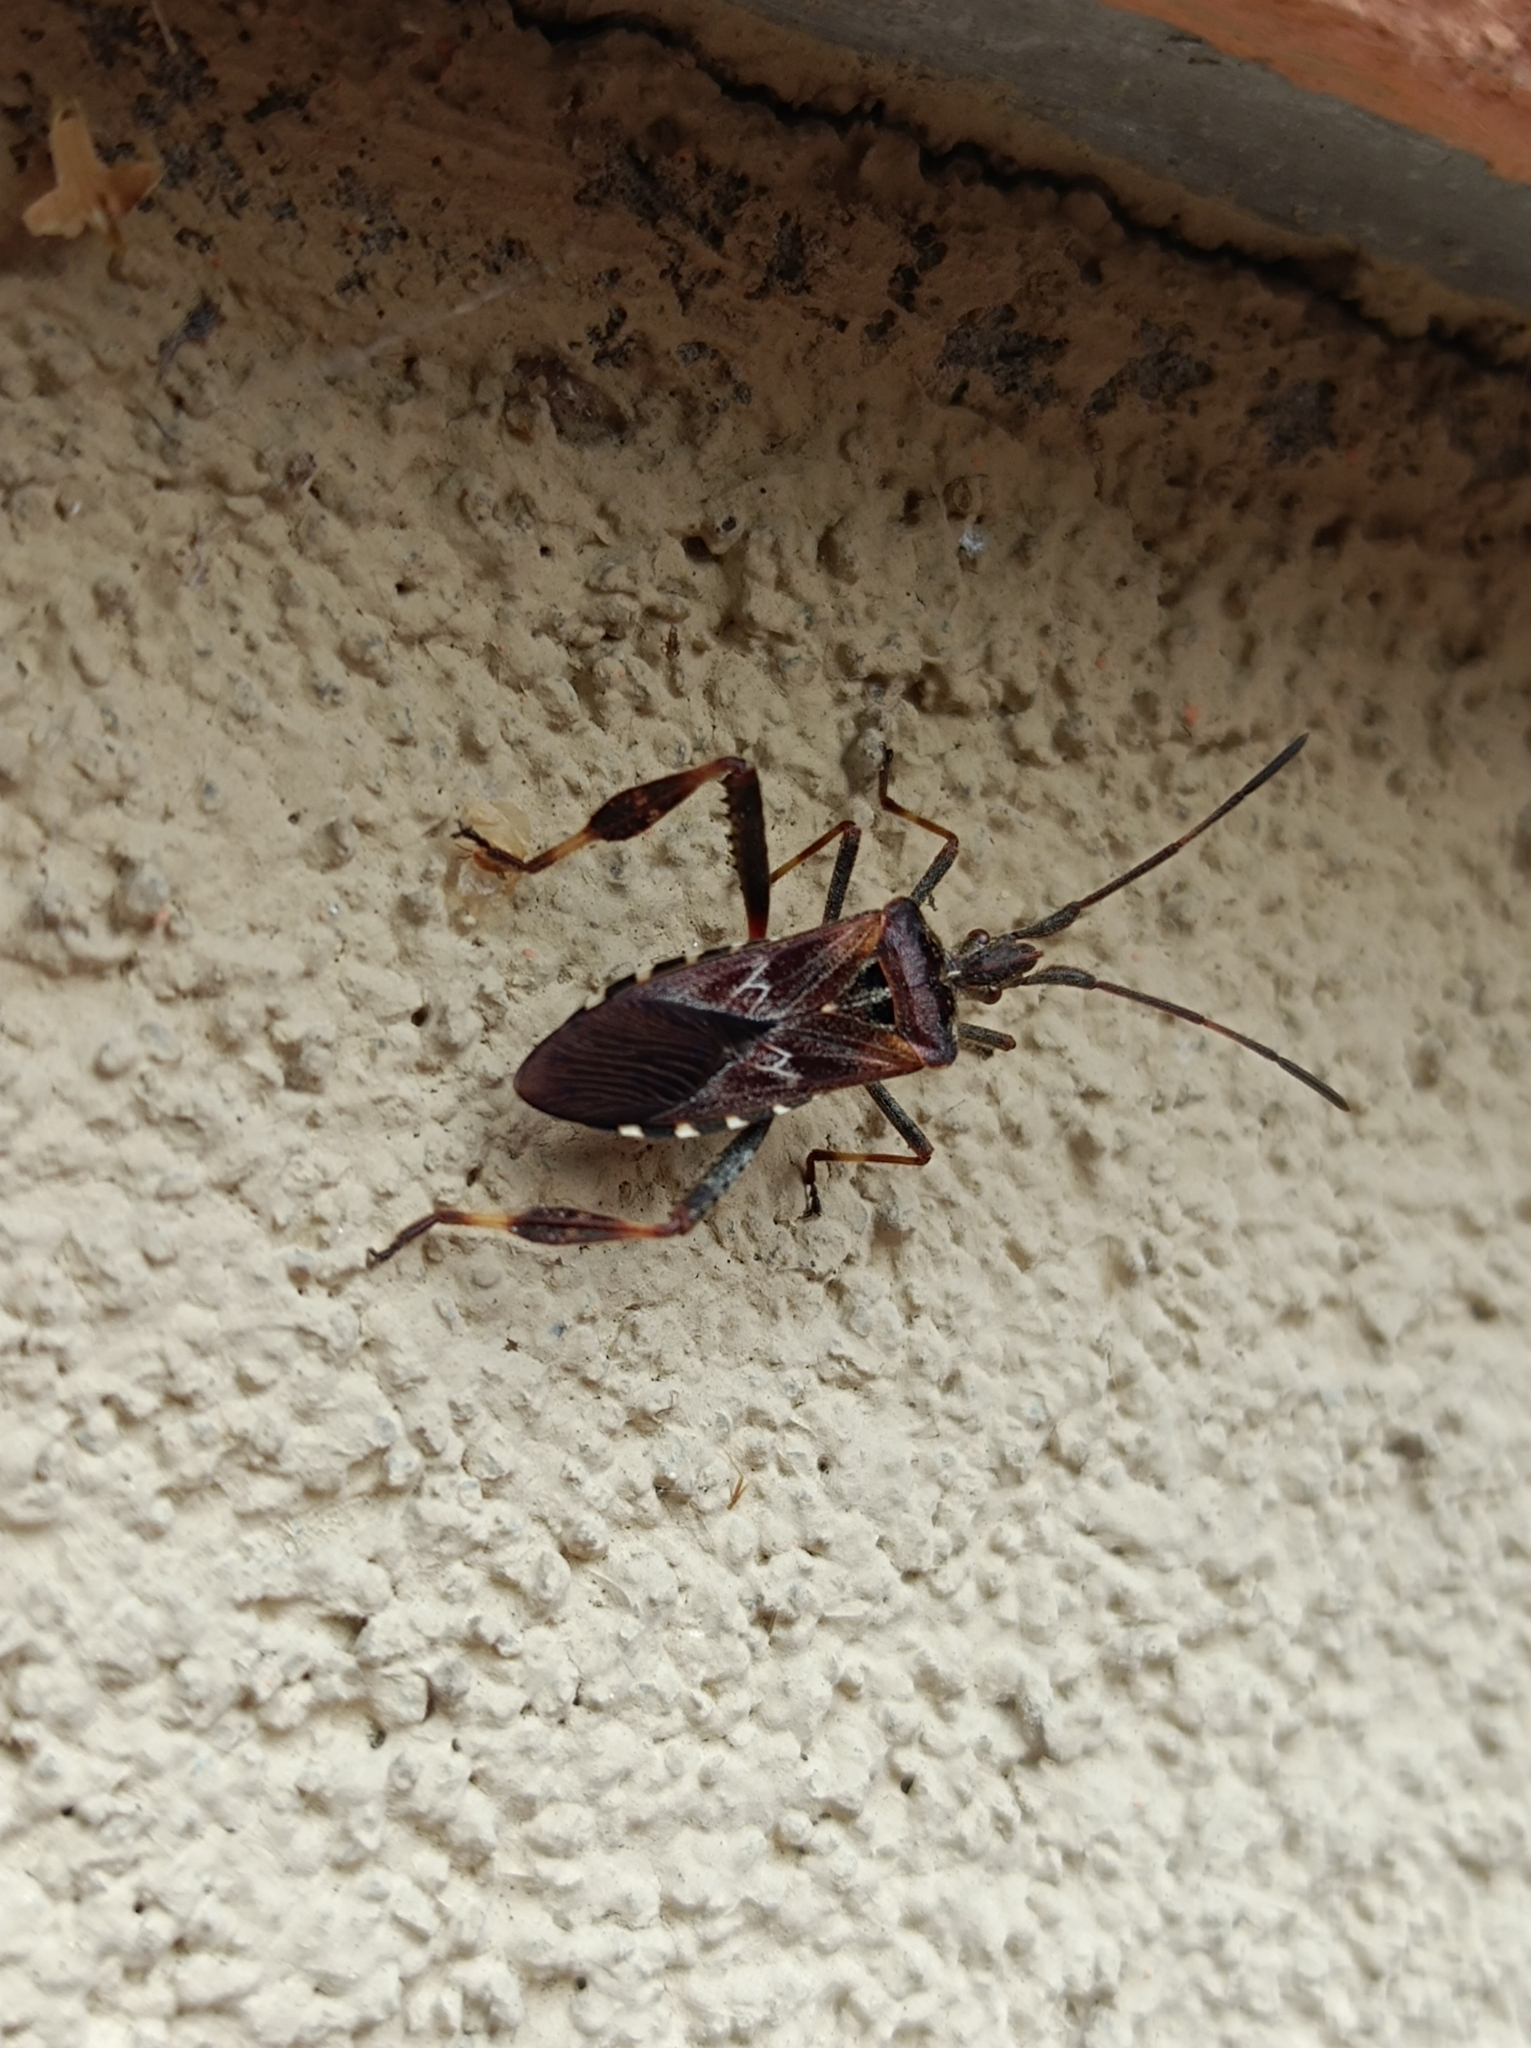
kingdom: Animalia
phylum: Arthropoda
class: Insecta
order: Hemiptera
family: Coreidae
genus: Leptoglossus
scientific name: Leptoglossus occidentalis
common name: Western conifer-seed bug
